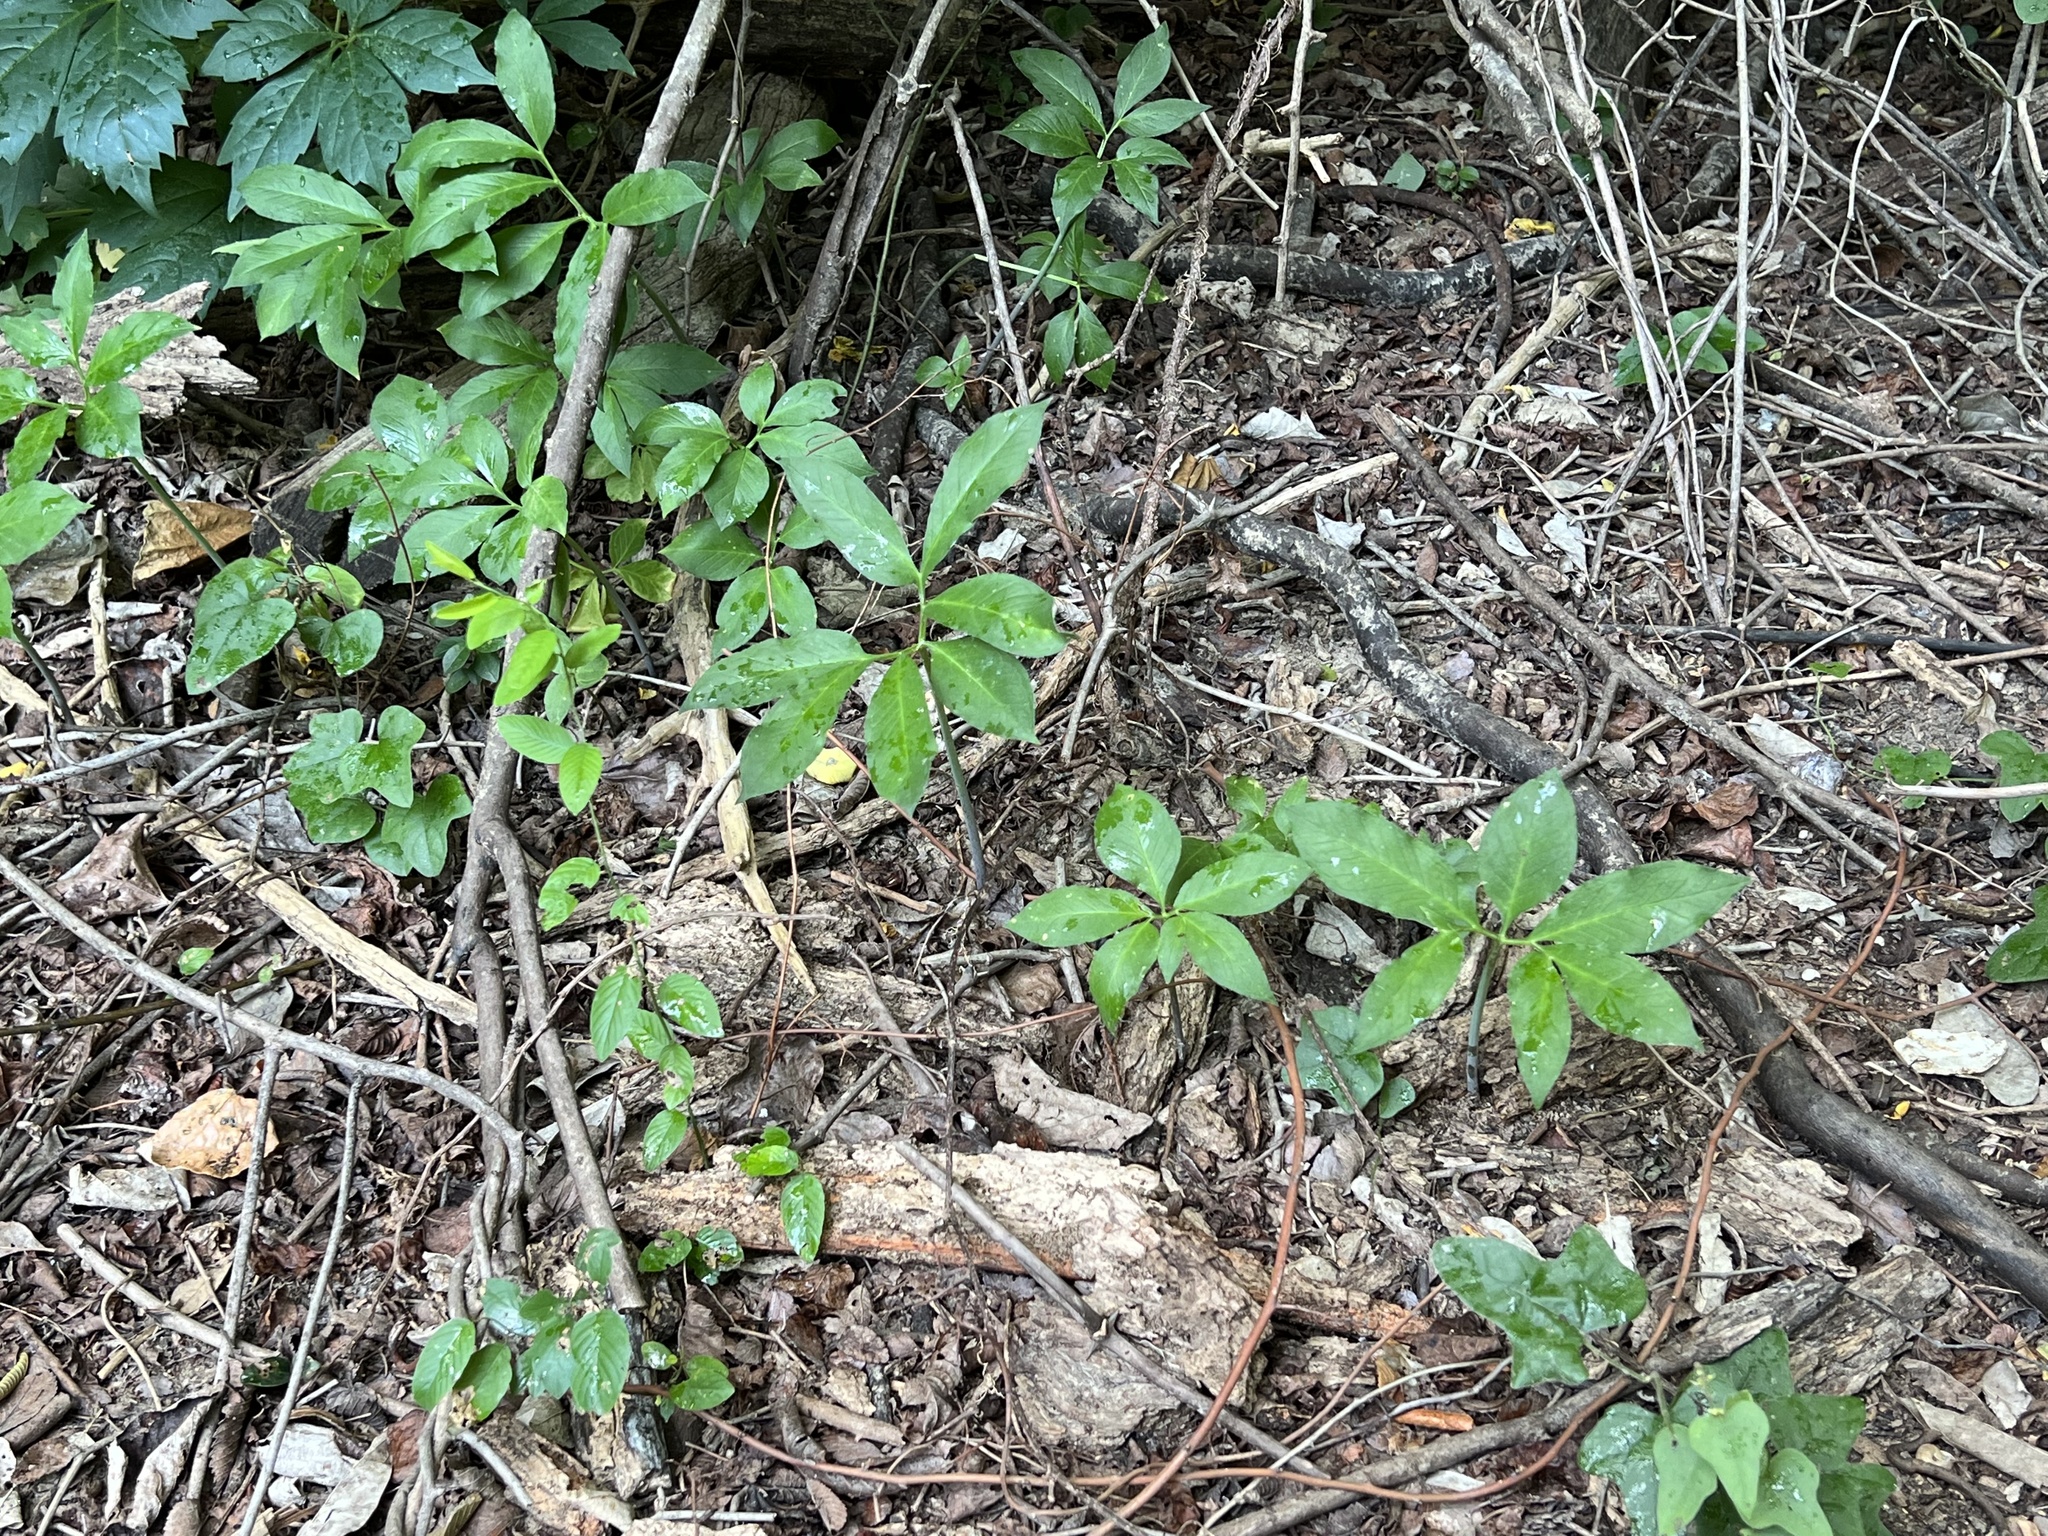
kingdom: Plantae
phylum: Tracheophyta
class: Liliopsida
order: Alismatales
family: Araceae
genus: Arisaema
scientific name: Arisaema dracontium
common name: Dragon-arum
